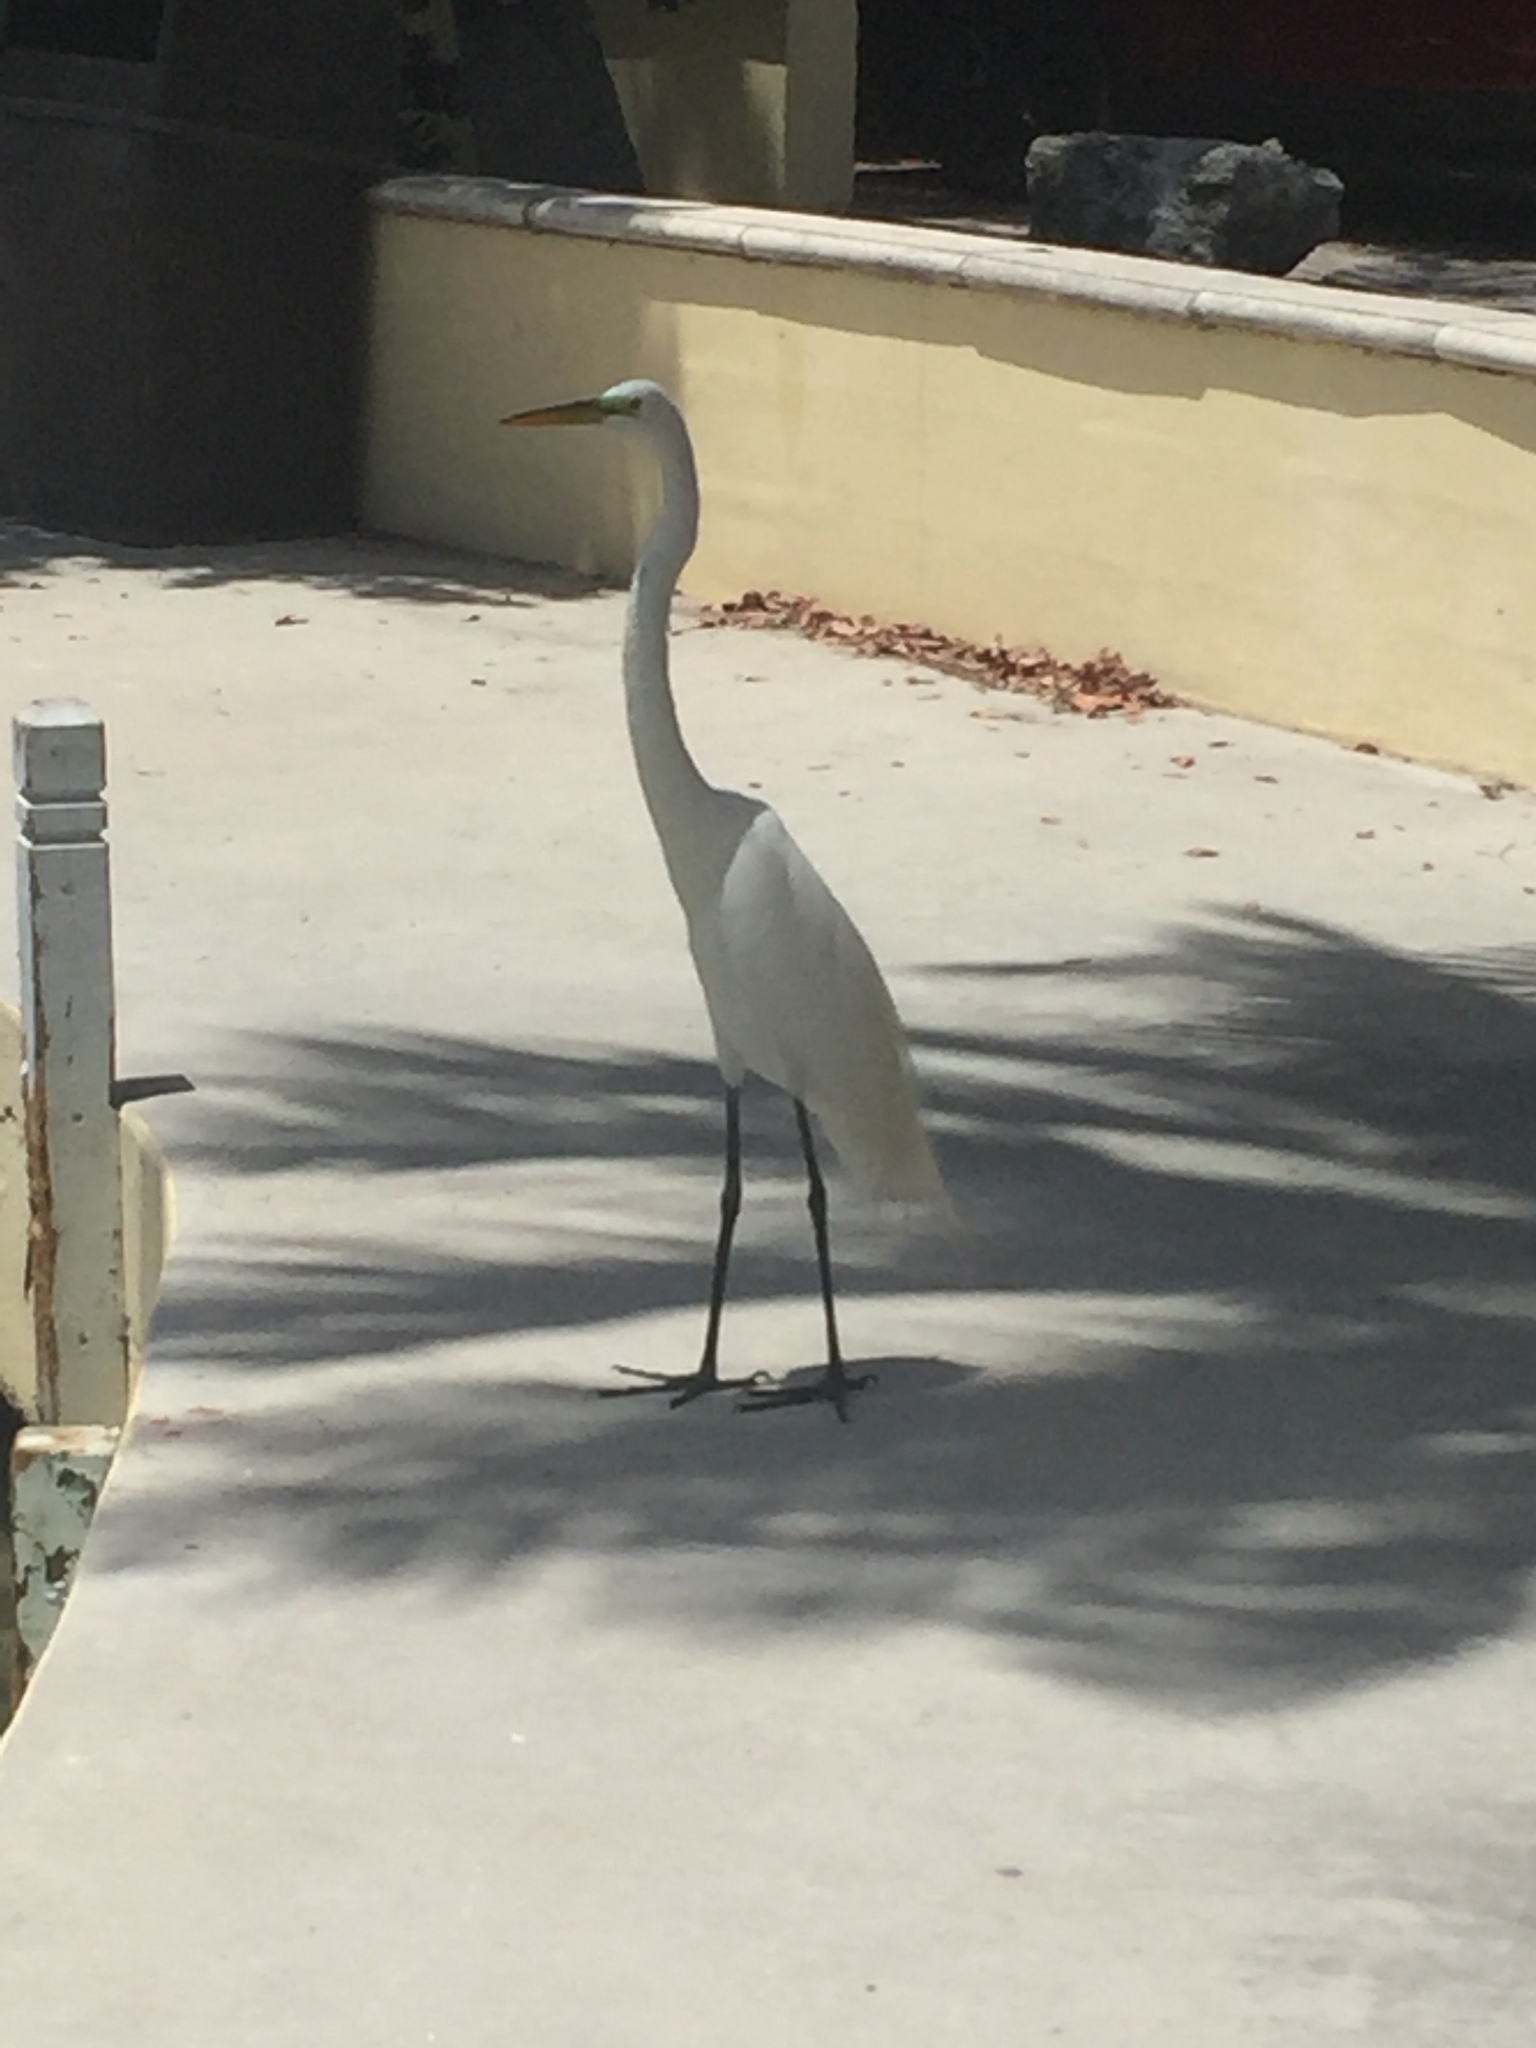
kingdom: Animalia
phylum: Chordata
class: Aves
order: Pelecaniformes
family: Ardeidae
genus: Ardea
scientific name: Ardea alba
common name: Great egret
